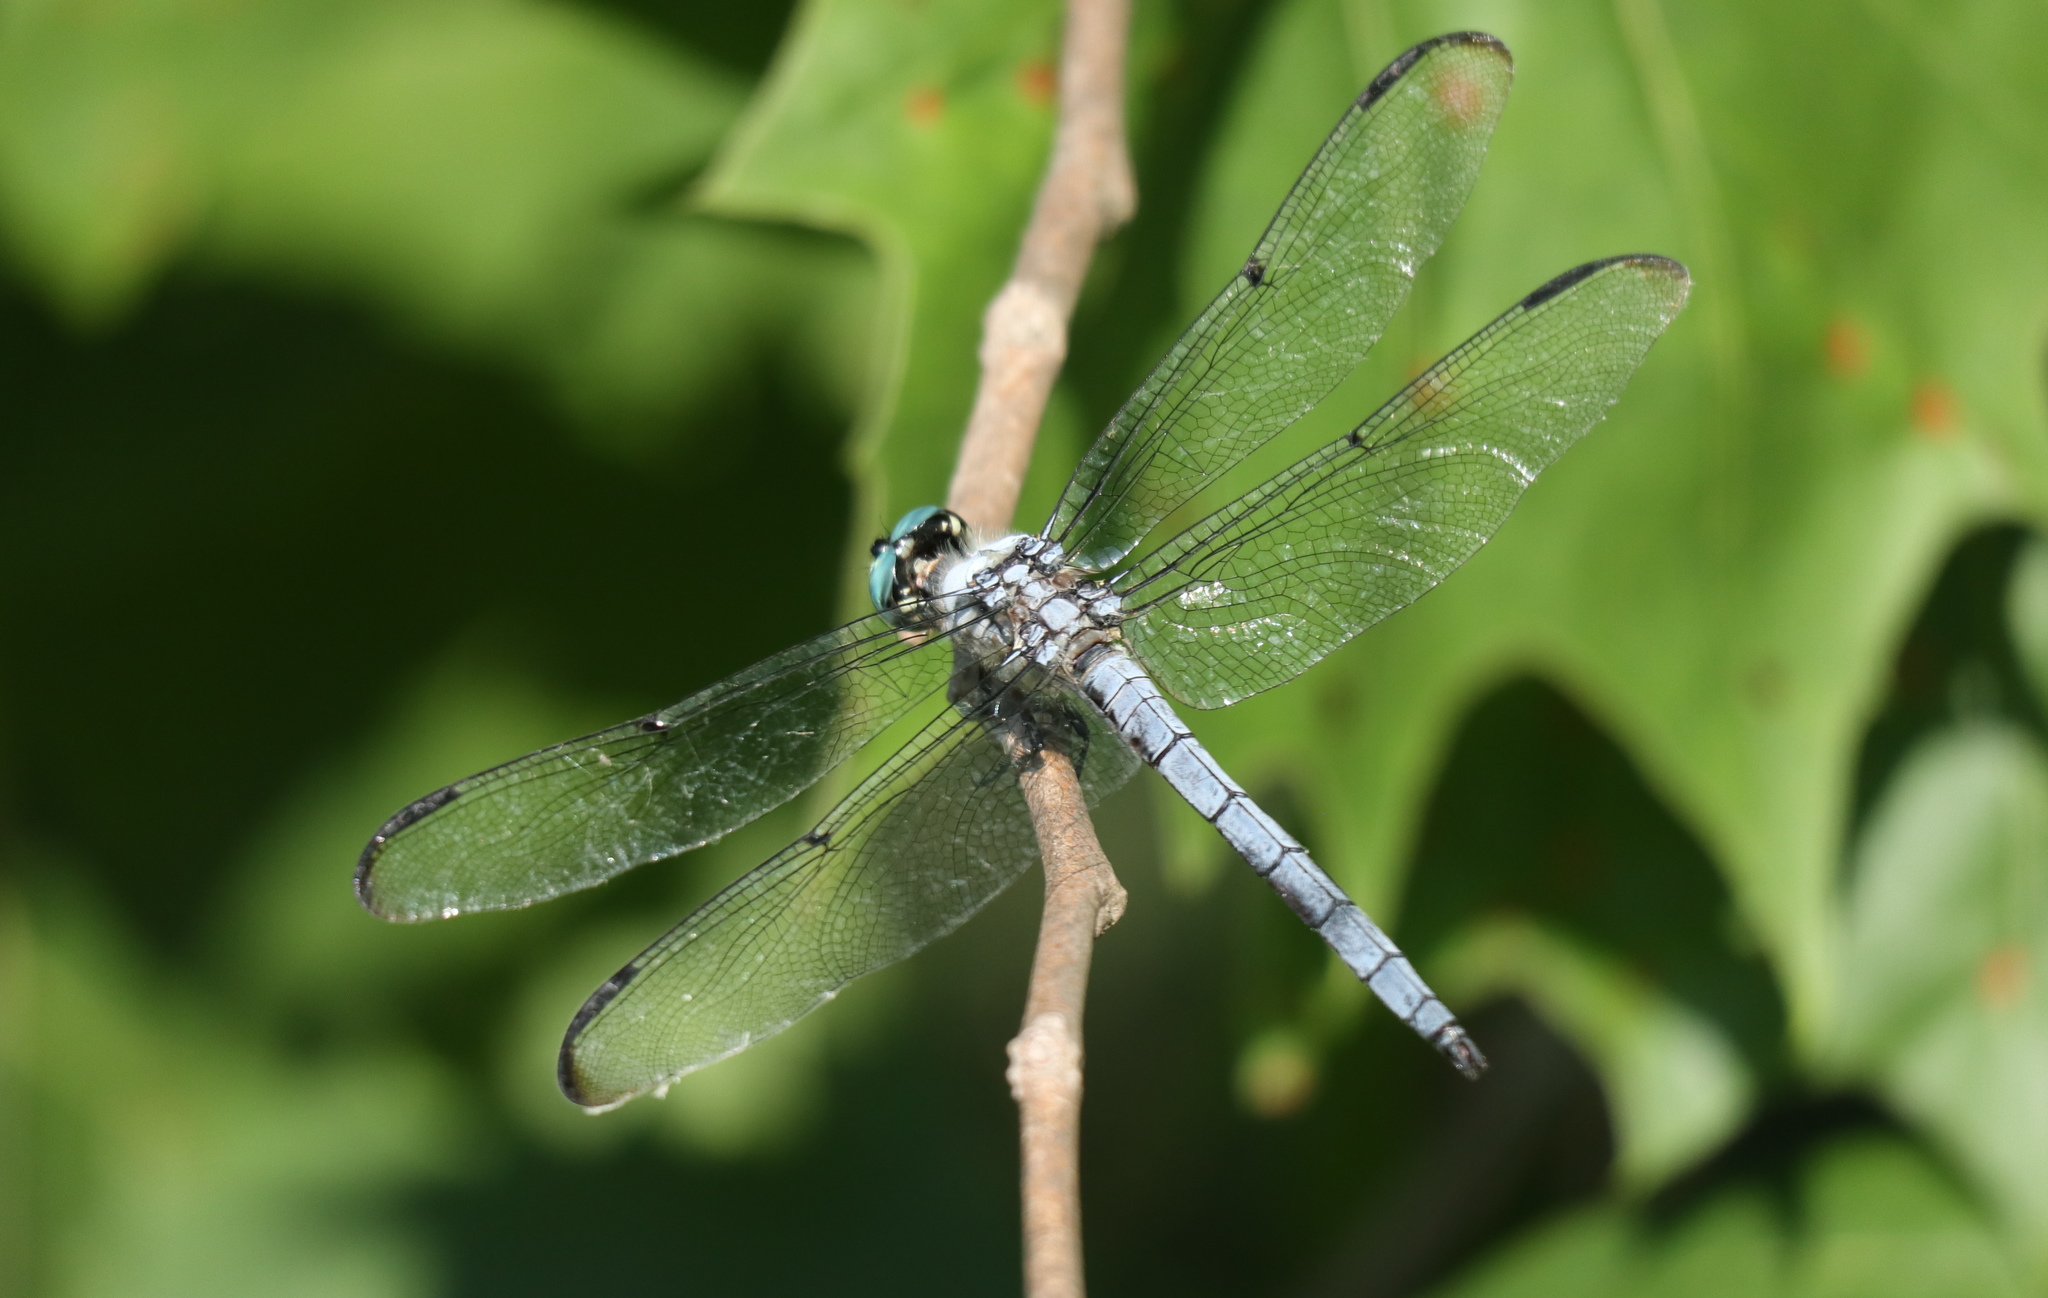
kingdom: Animalia
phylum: Arthropoda
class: Insecta
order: Odonata
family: Libellulidae
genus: Libellula
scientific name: Libellula vibrans
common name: Great blue skimmer
